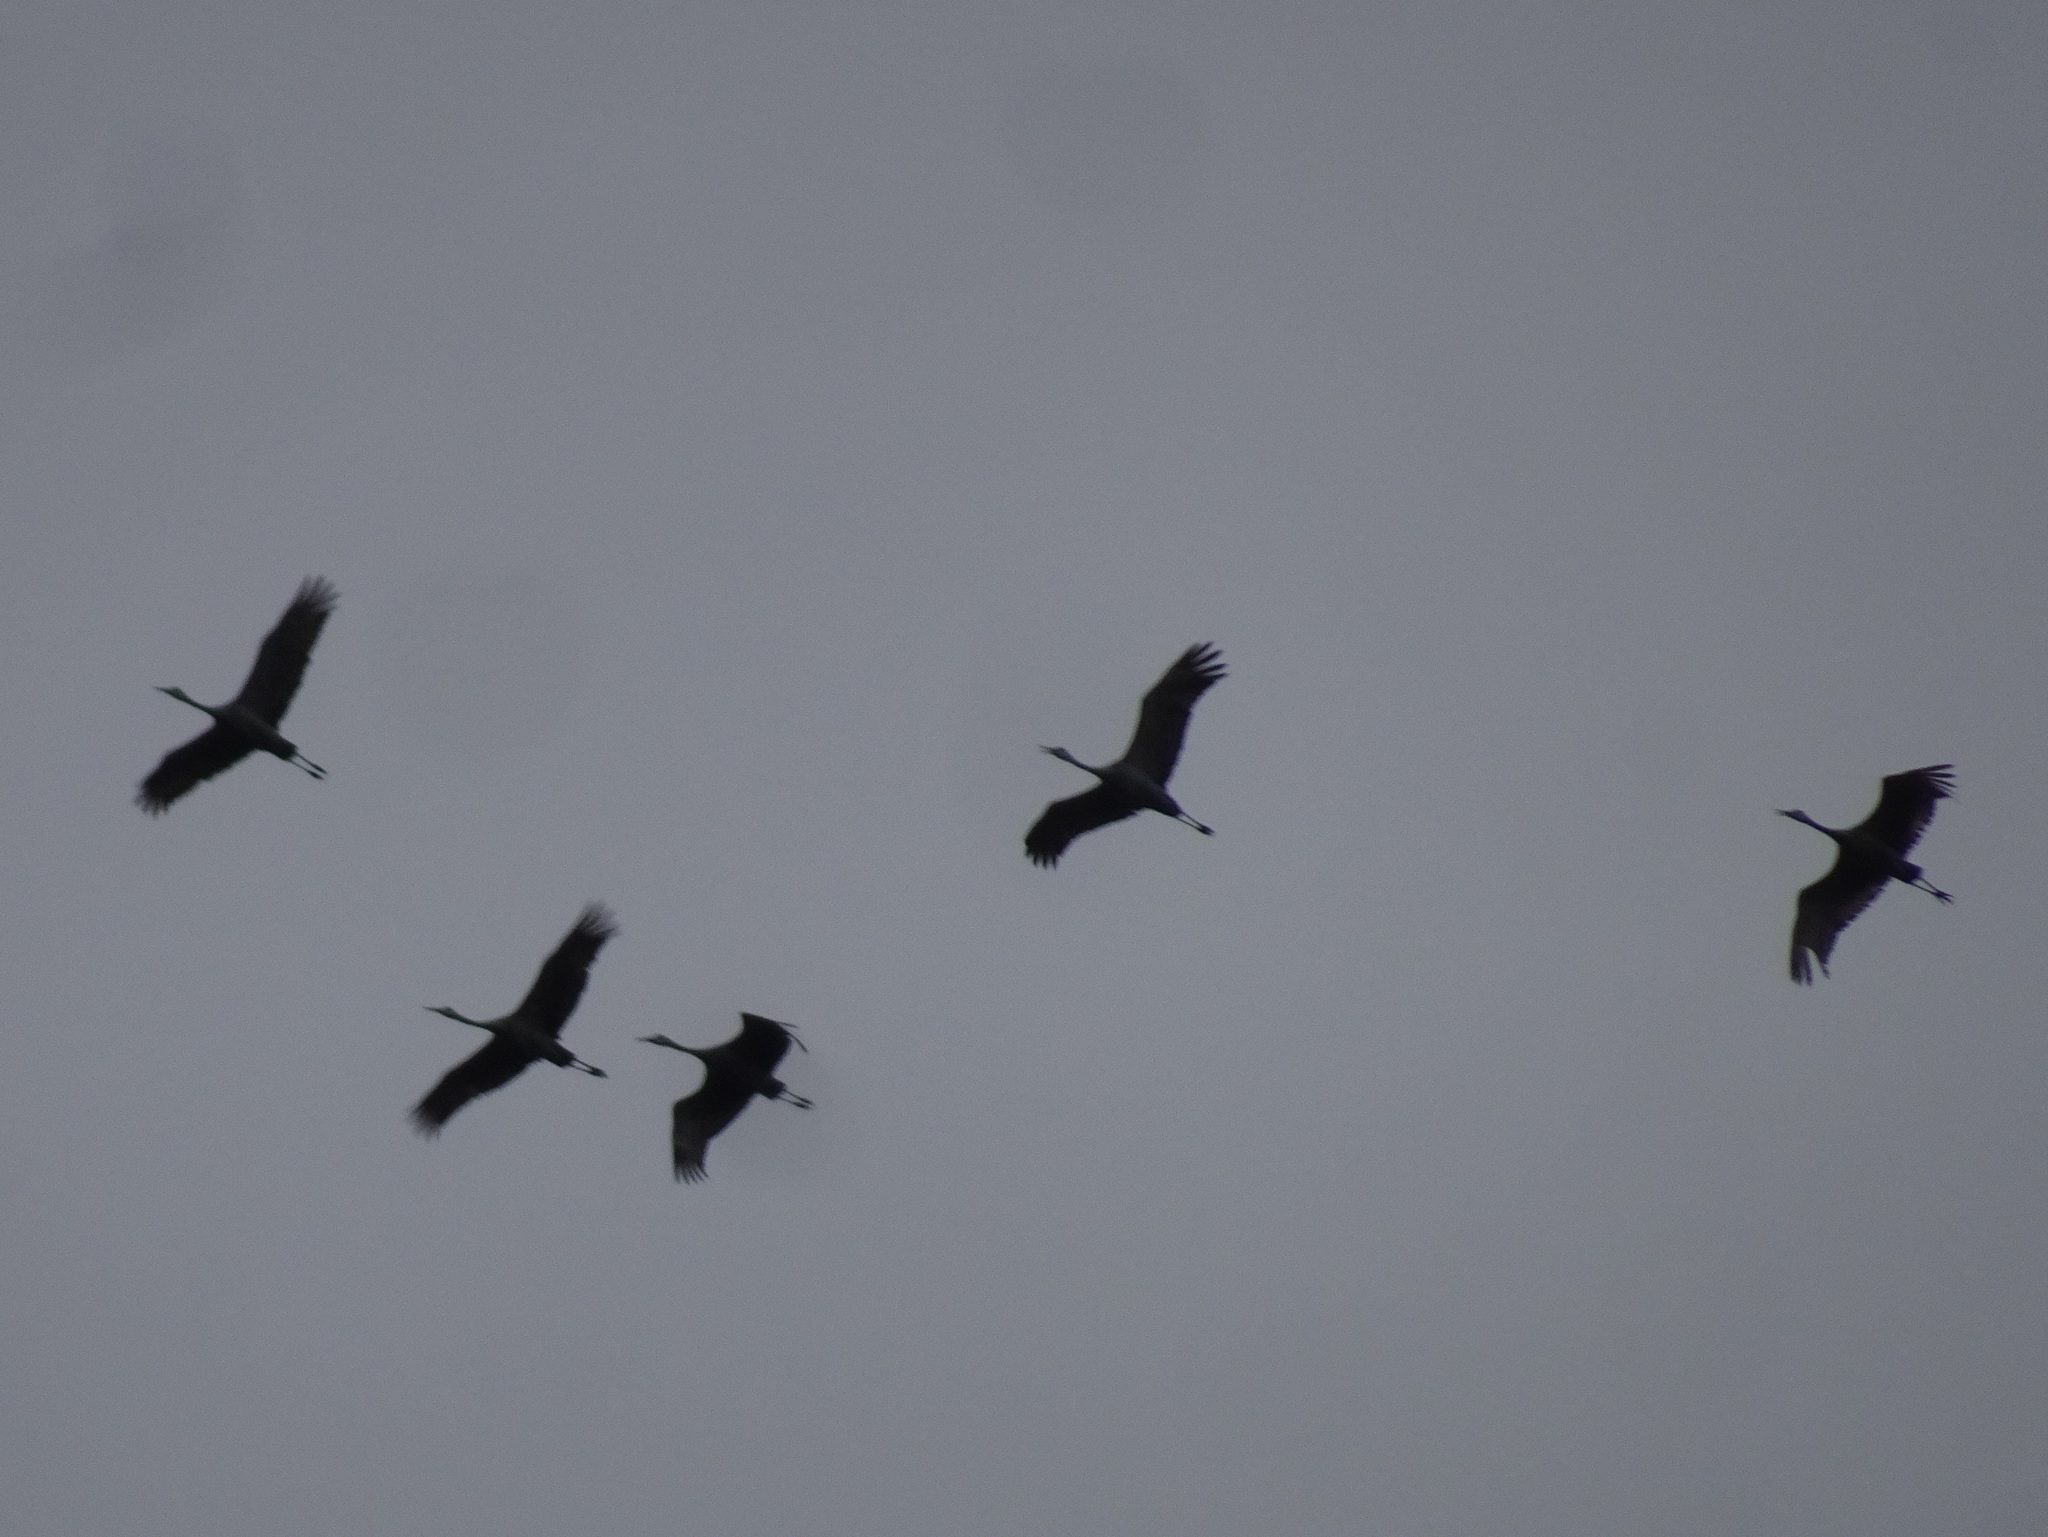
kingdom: Animalia
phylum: Chordata
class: Aves
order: Gruiformes
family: Gruidae
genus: Grus
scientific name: Grus canadensis
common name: Sandhill crane
